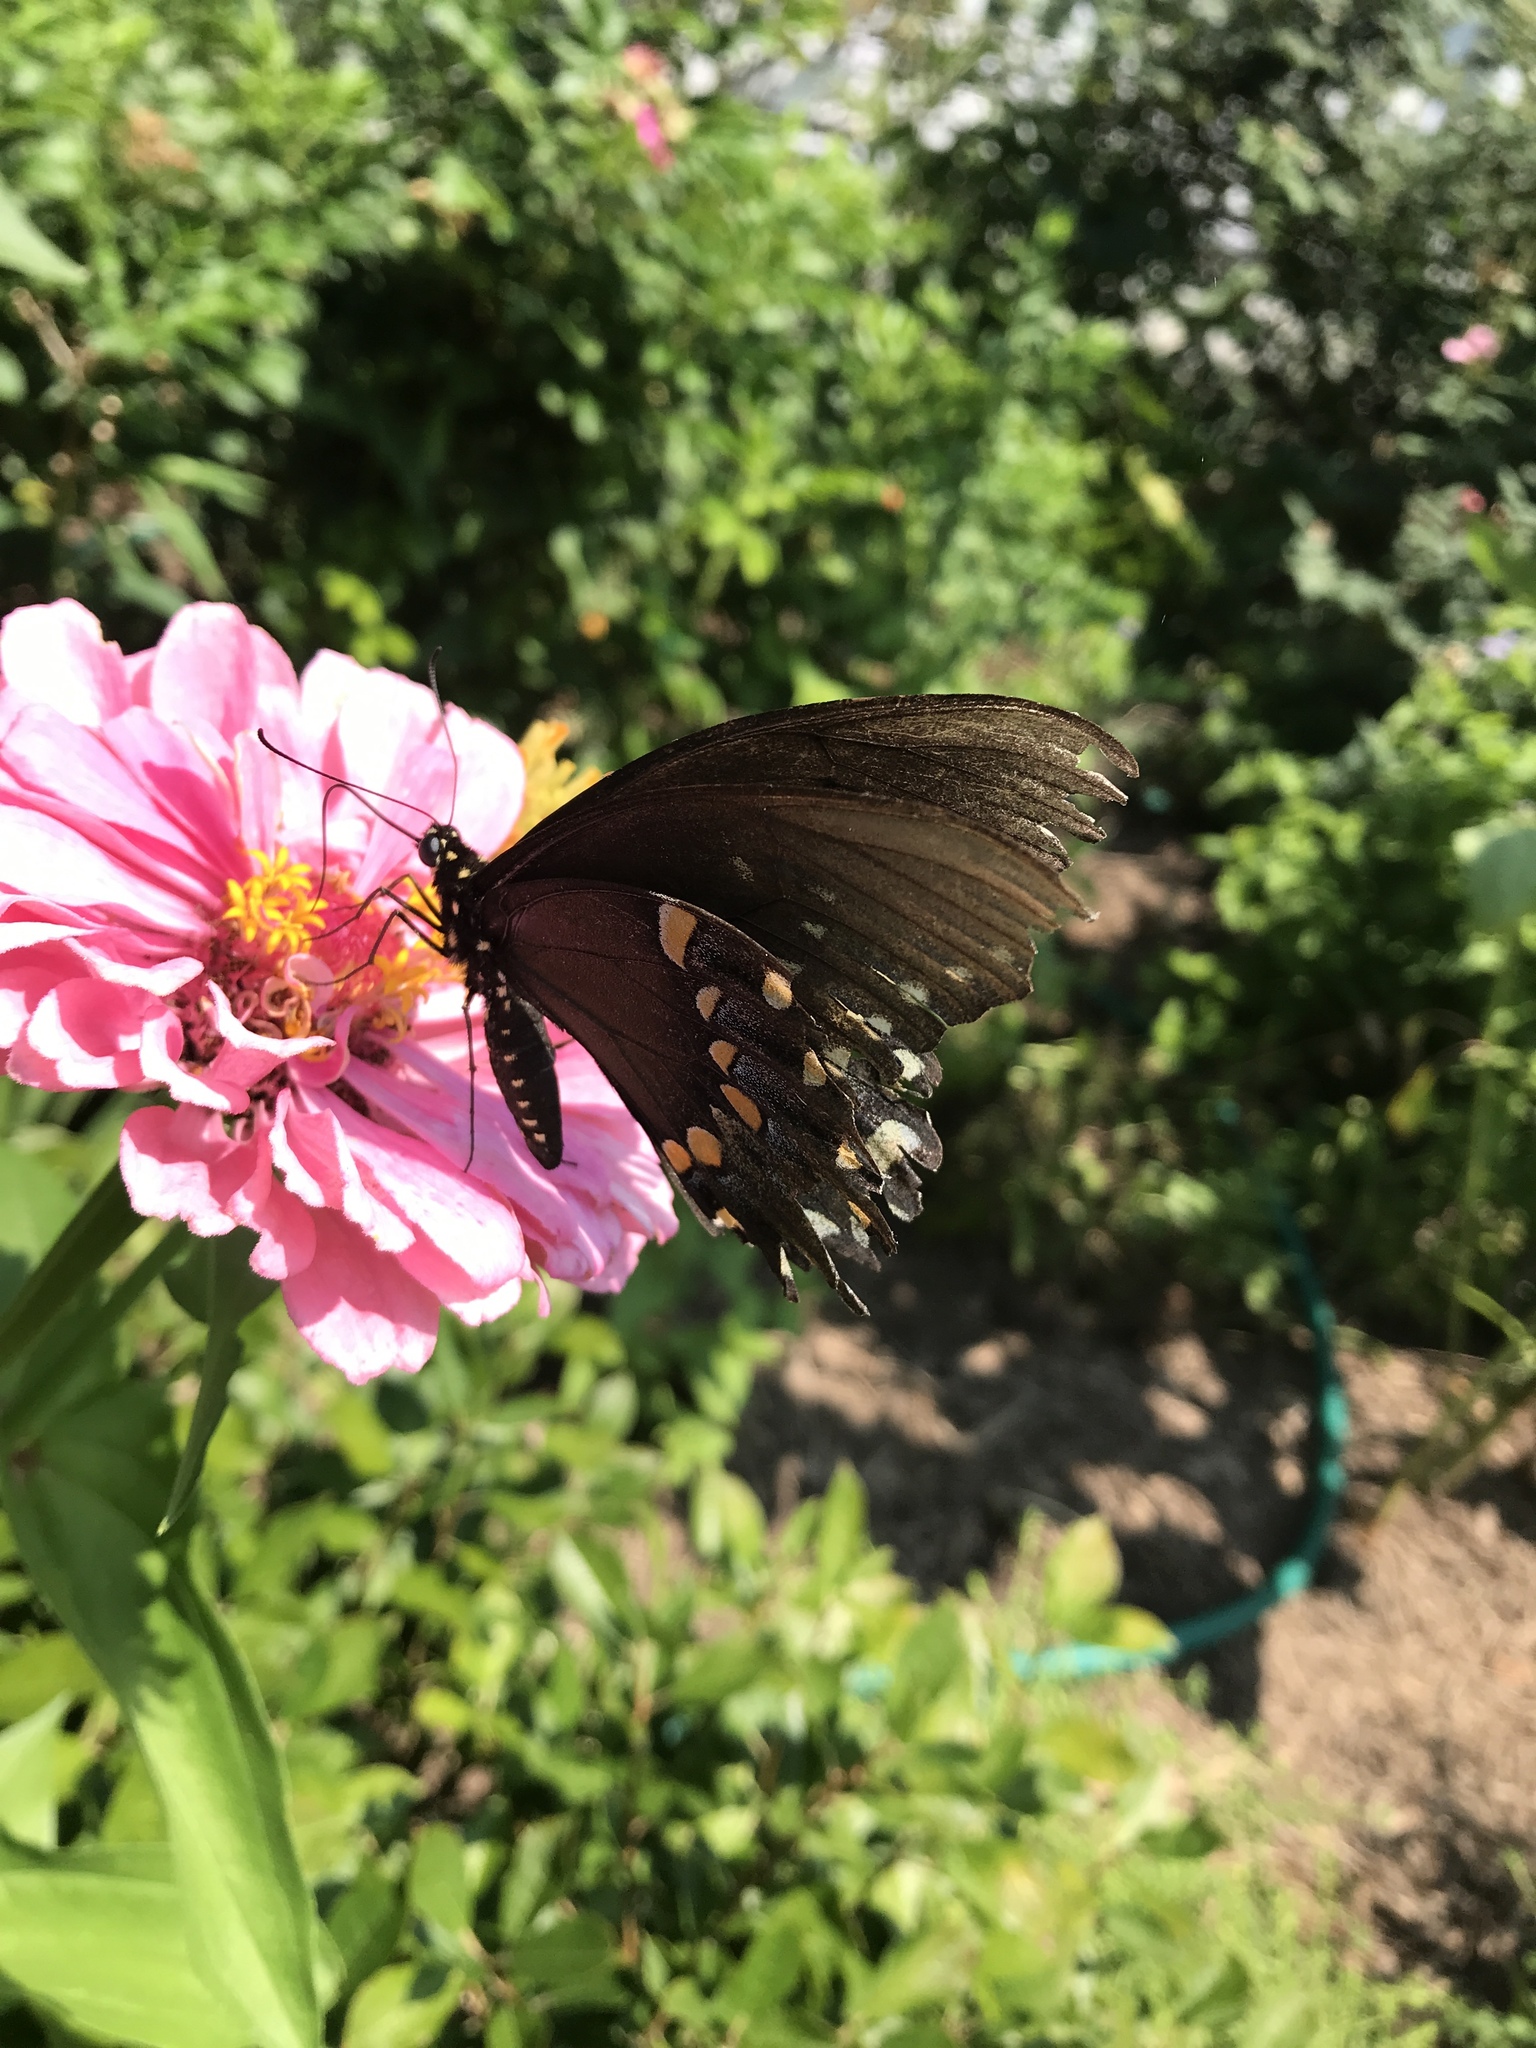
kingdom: Animalia
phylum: Arthropoda
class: Insecta
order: Lepidoptera
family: Papilionidae
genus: Papilio
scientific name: Papilio troilus
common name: Spicebush swallowtail
